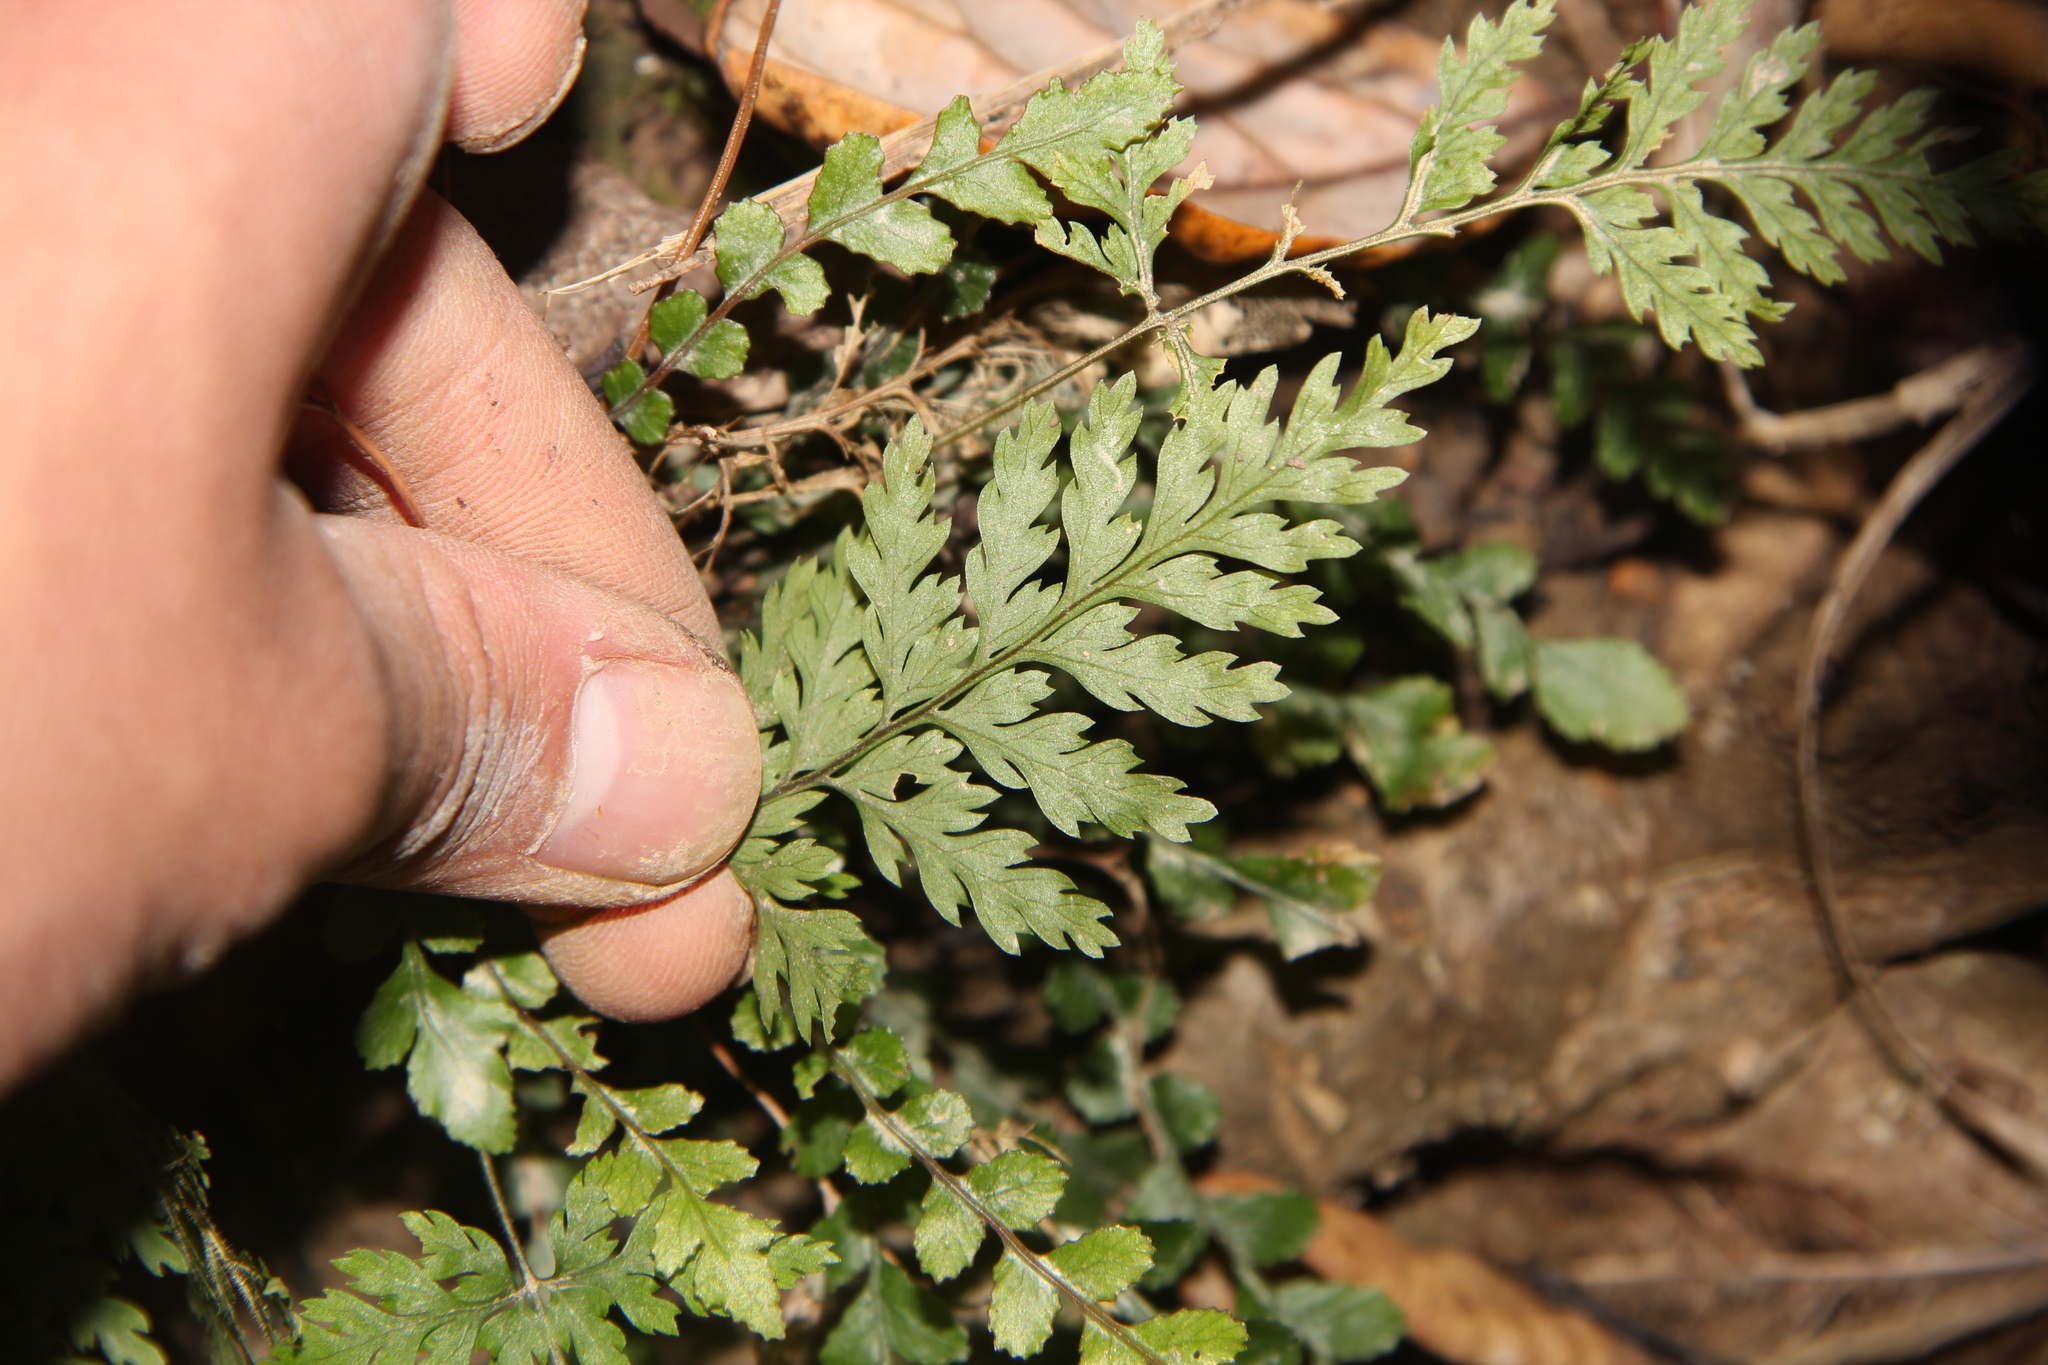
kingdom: Plantae
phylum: Tracheophyta
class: Polypodiopsida
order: Polypodiales
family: Dryopteridaceae
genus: Parapolystichum
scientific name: Parapolystichum glabellum
